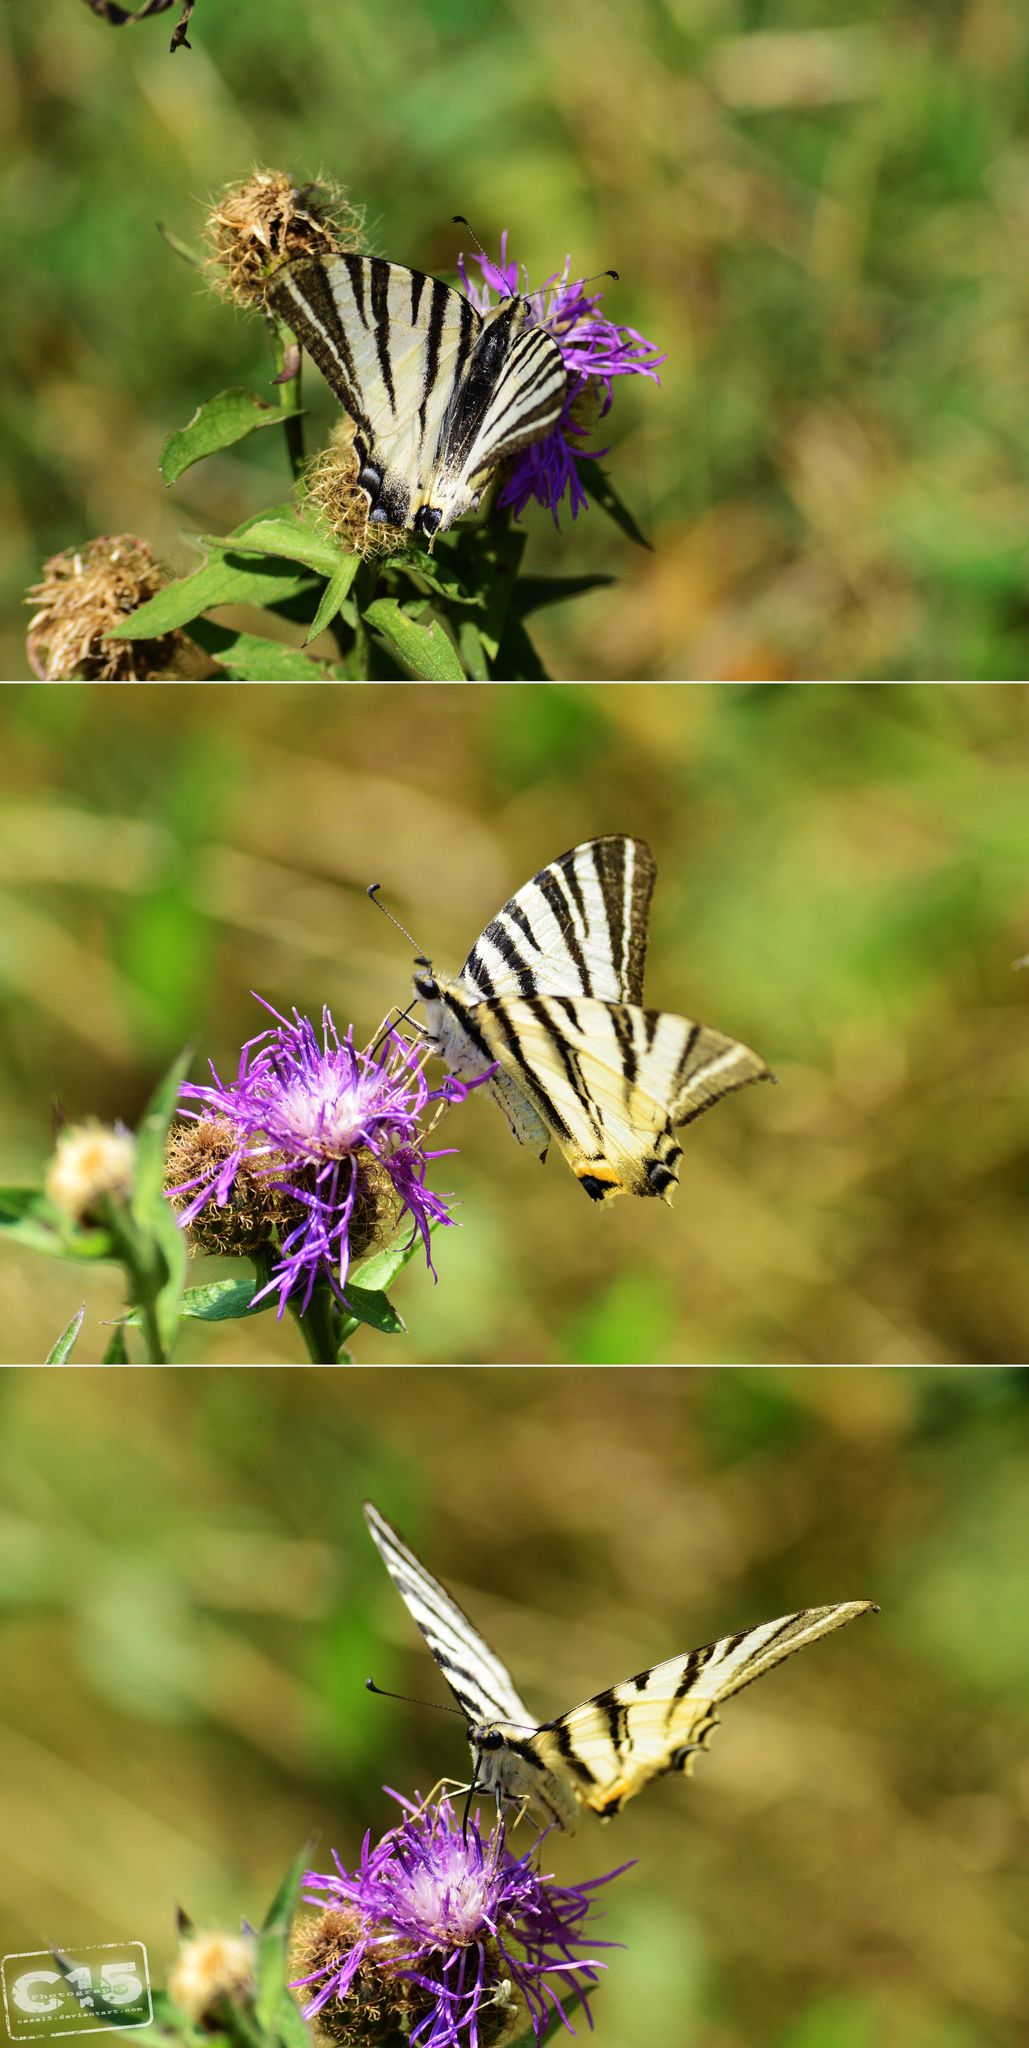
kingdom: Animalia
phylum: Arthropoda
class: Insecta
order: Lepidoptera
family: Papilionidae
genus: Iphiclides
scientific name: Iphiclides podalirius
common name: Scarce swallowtail
